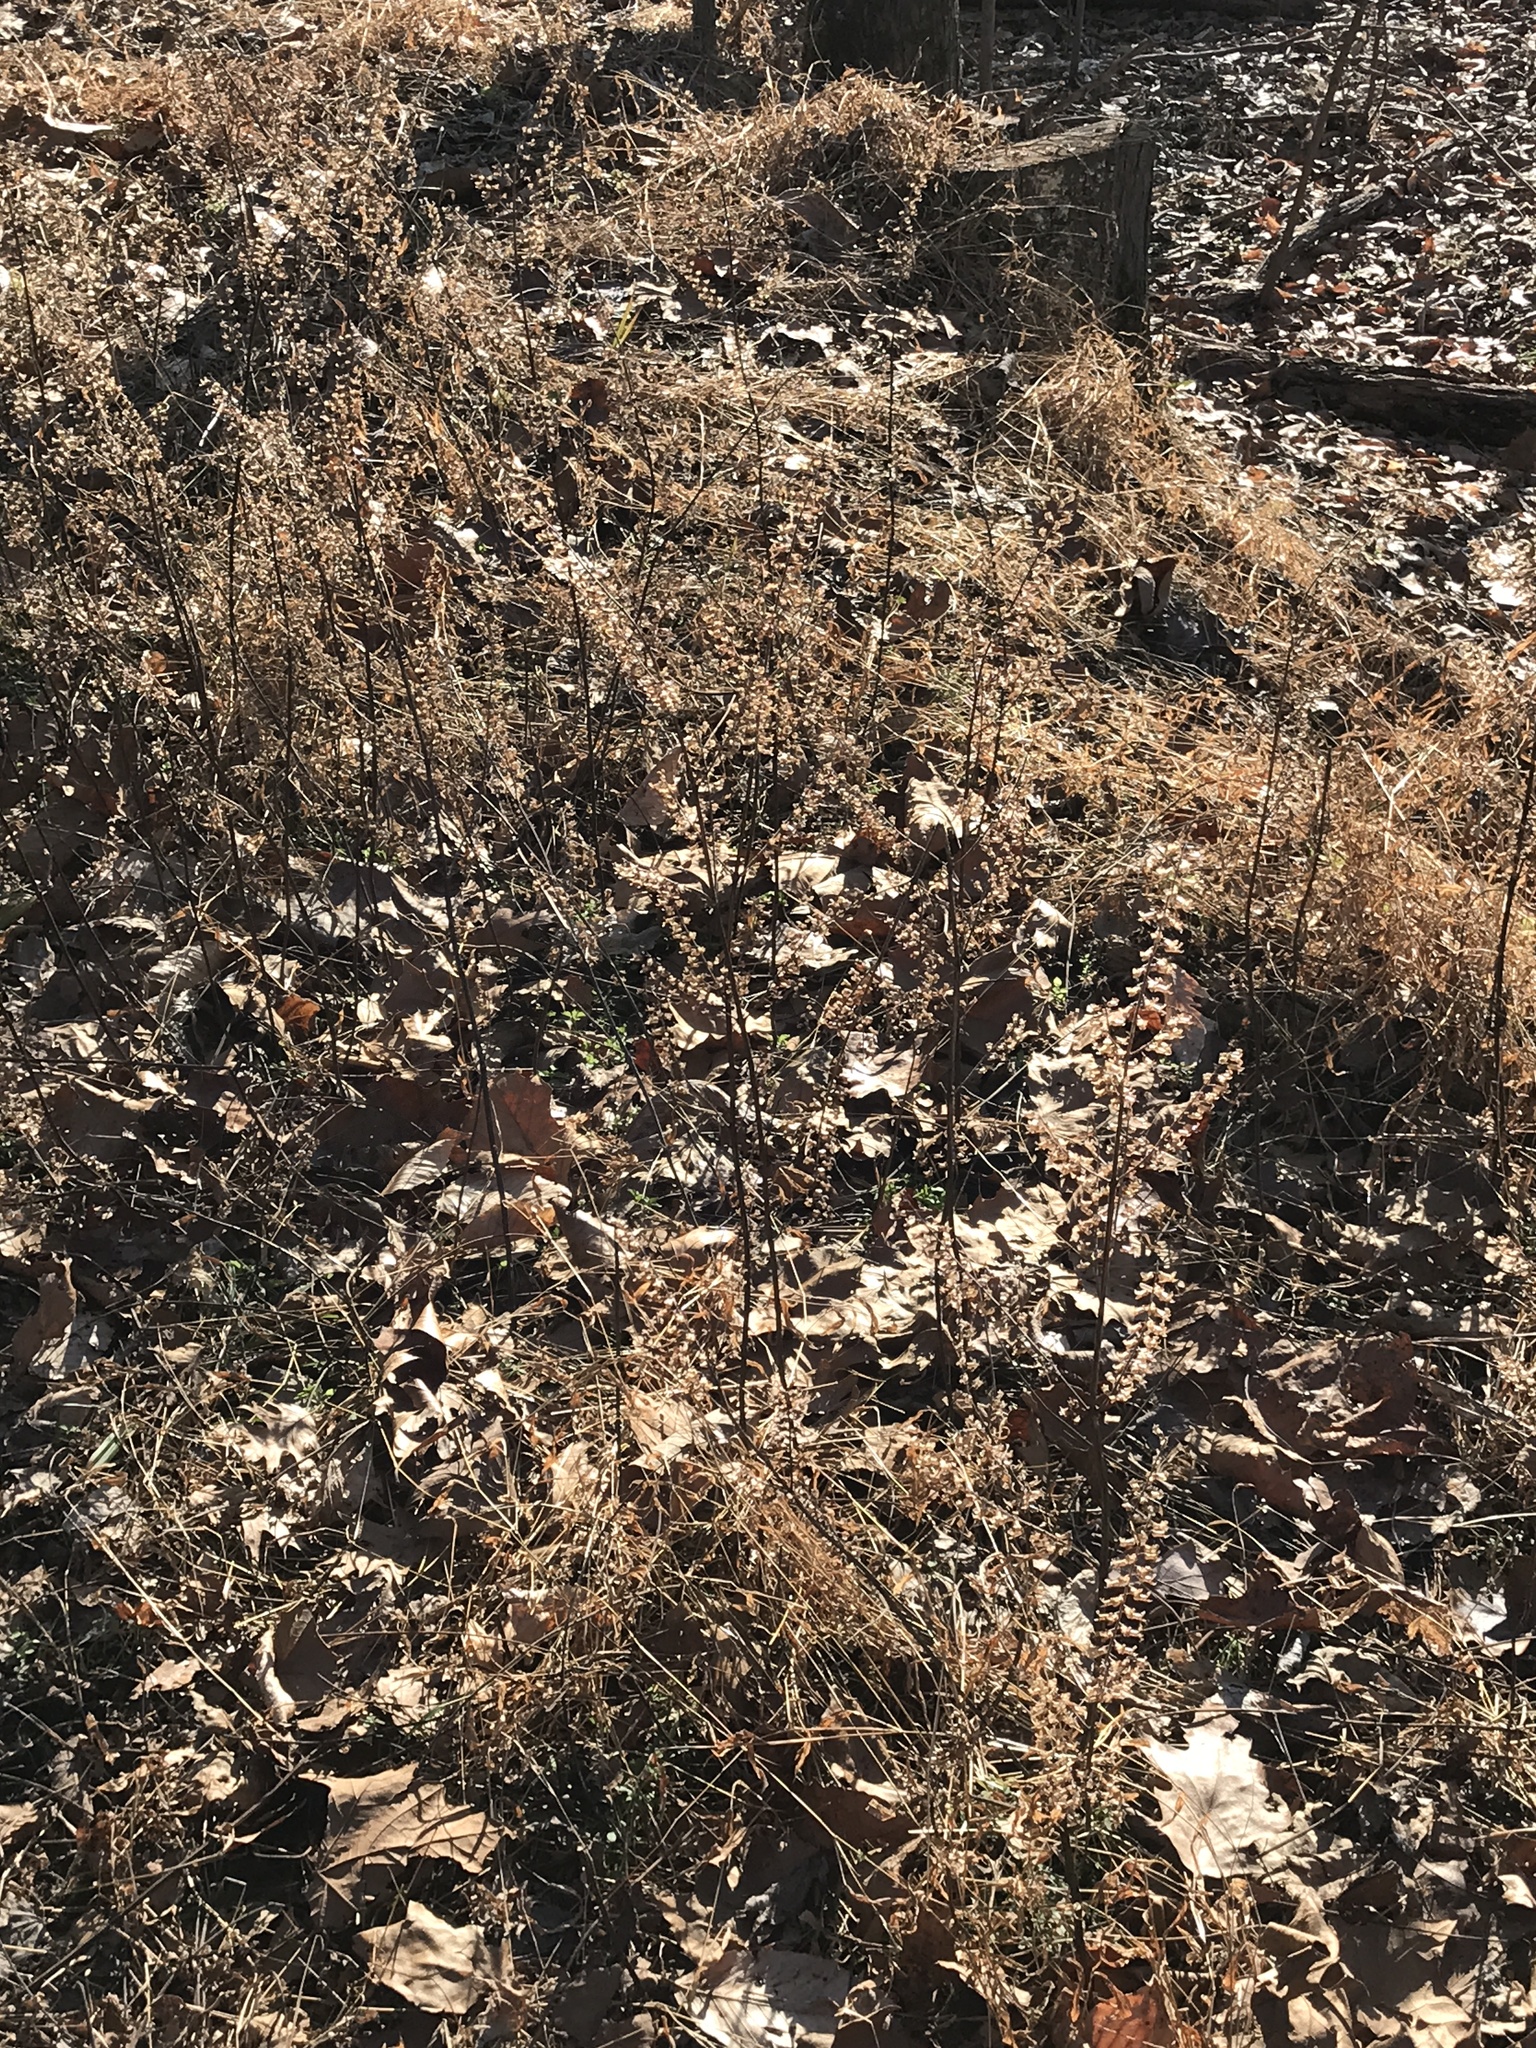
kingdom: Plantae
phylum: Tracheophyta
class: Magnoliopsida
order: Lamiales
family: Lamiaceae
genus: Perilla
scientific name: Perilla frutescens
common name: Perilla
